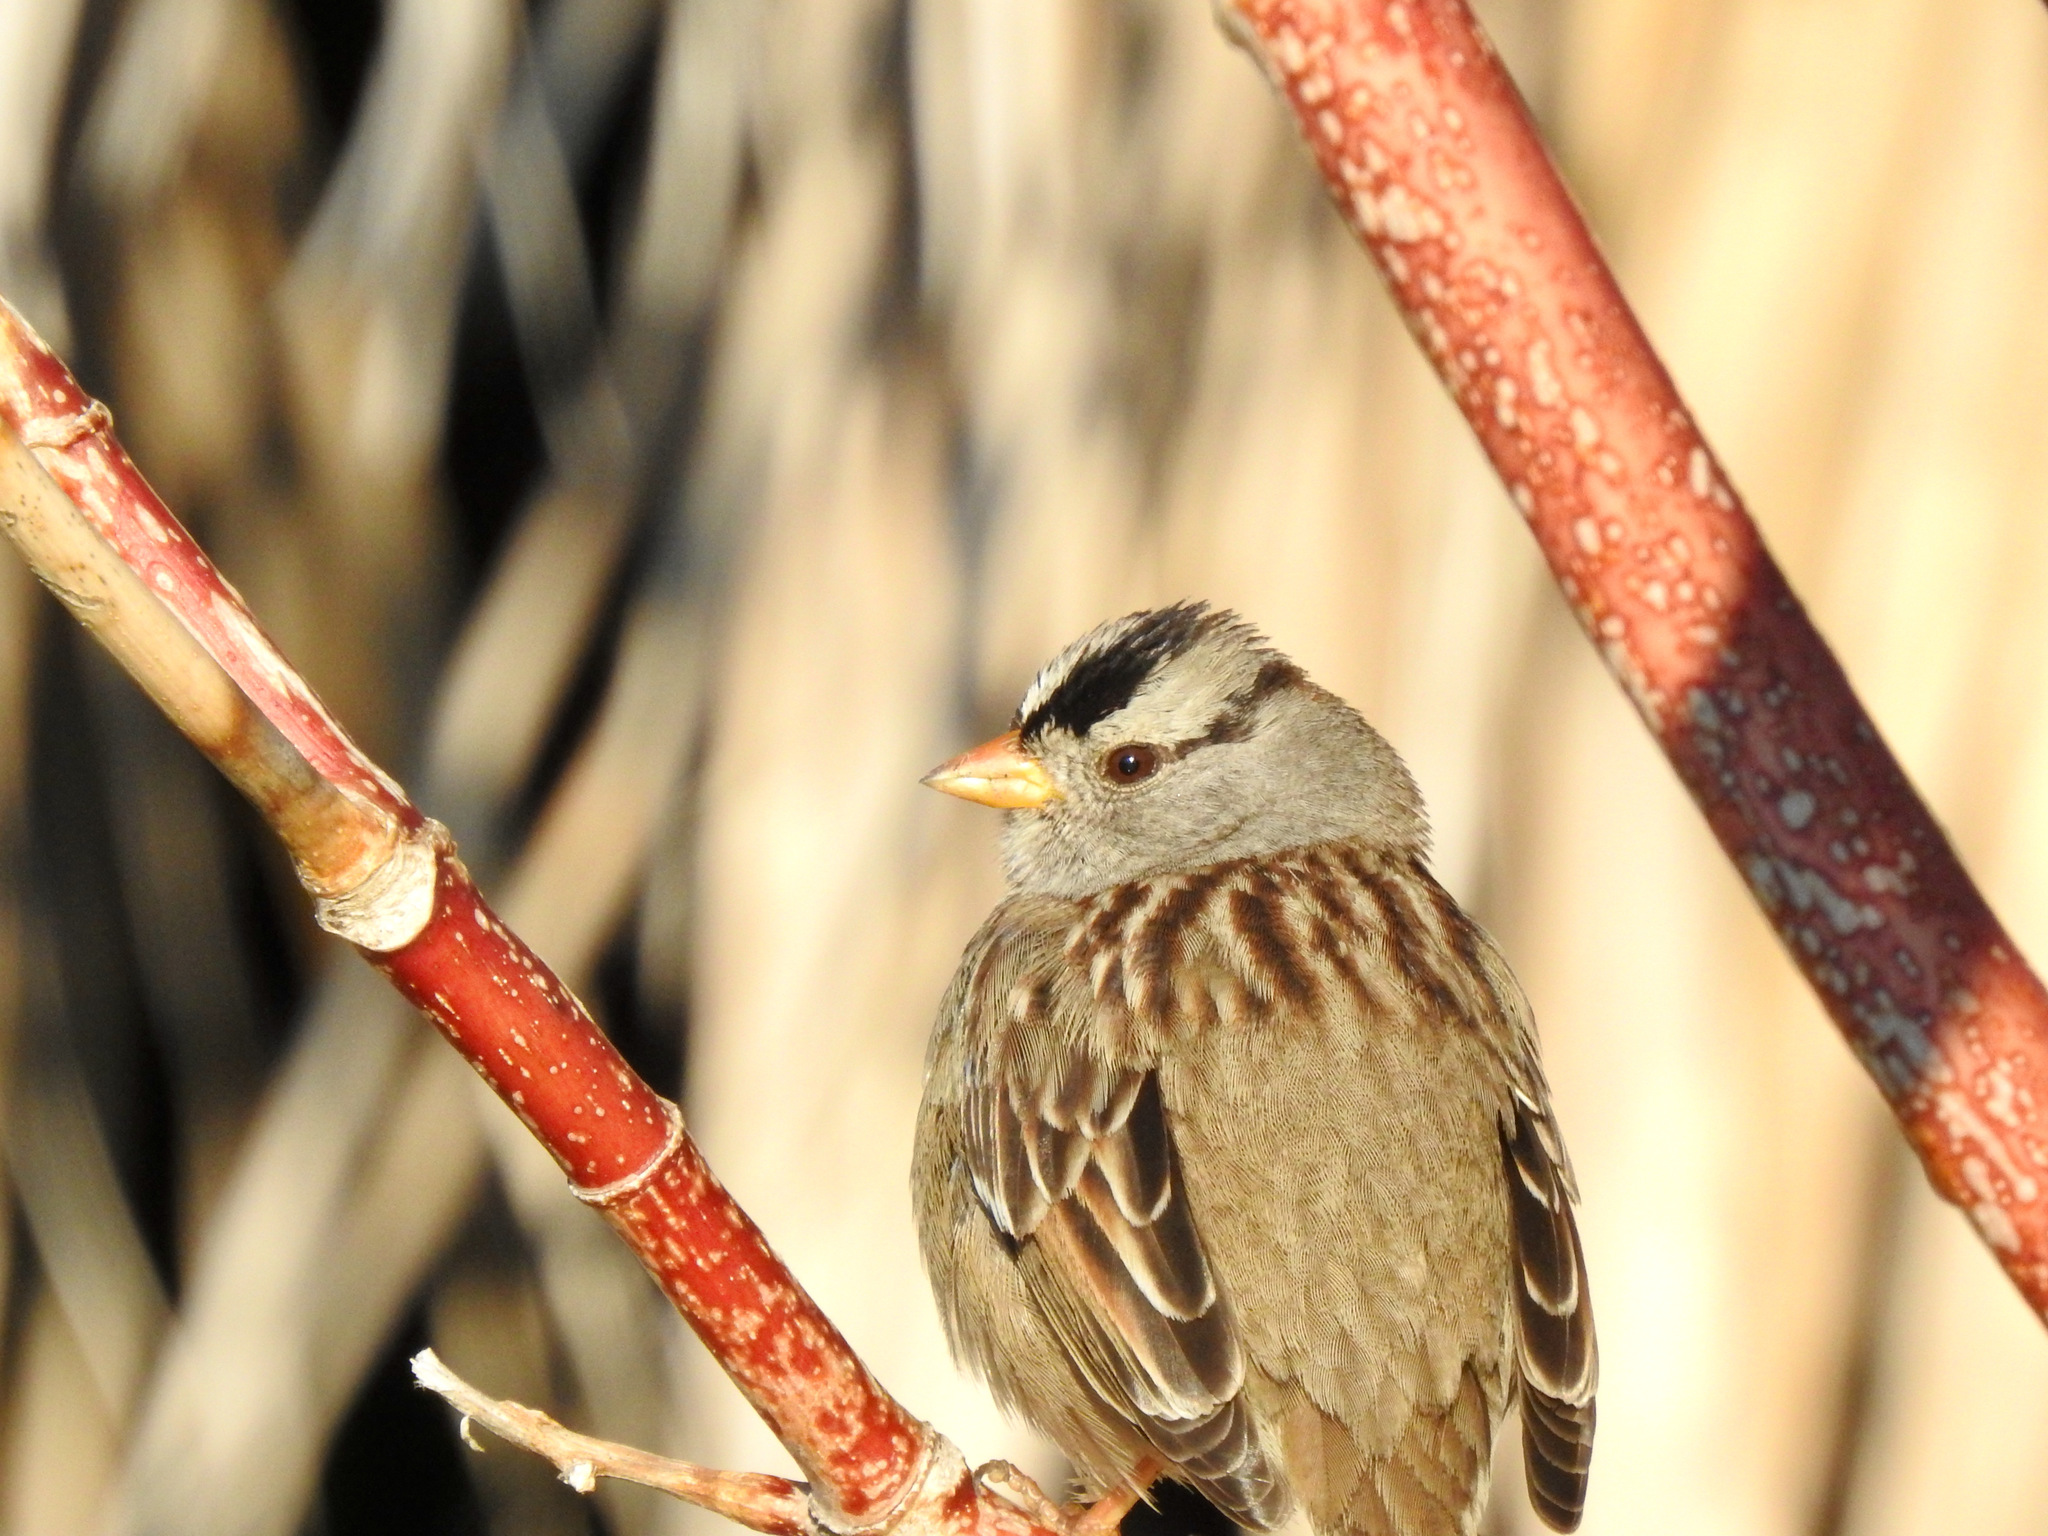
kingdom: Animalia
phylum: Chordata
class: Aves
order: Passeriformes
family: Passerellidae
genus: Zonotrichia
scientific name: Zonotrichia leucophrys
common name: White-crowned sparrow
